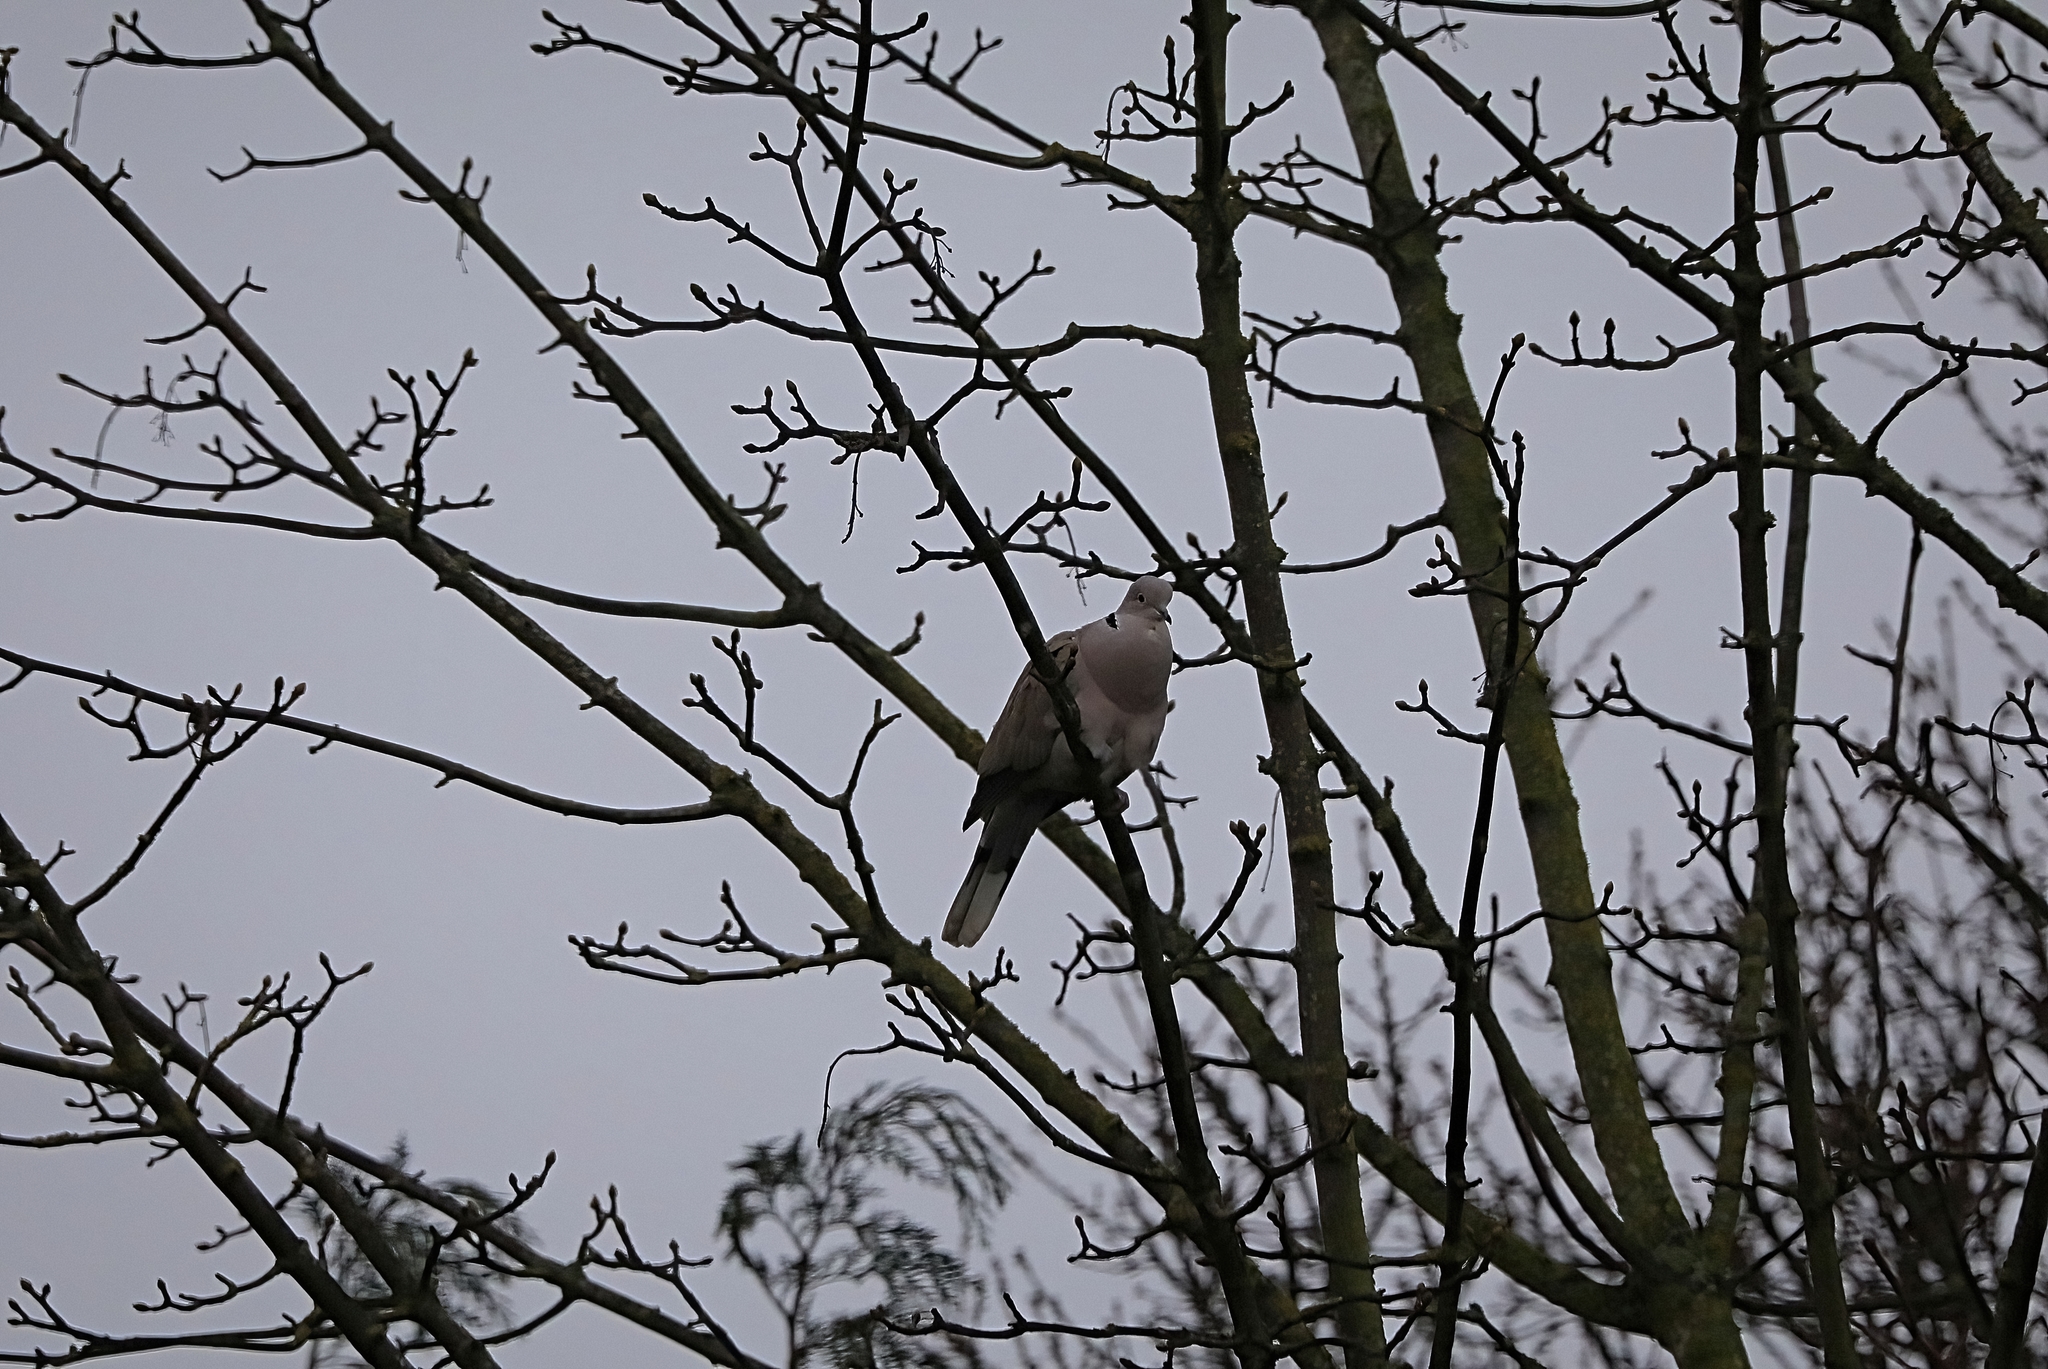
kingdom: Animalia
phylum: Chordata
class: Aves
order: Columbiformes
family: Columbidae
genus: Streptopelia
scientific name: Streptopelia decaocto
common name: Eurasian collared dove
